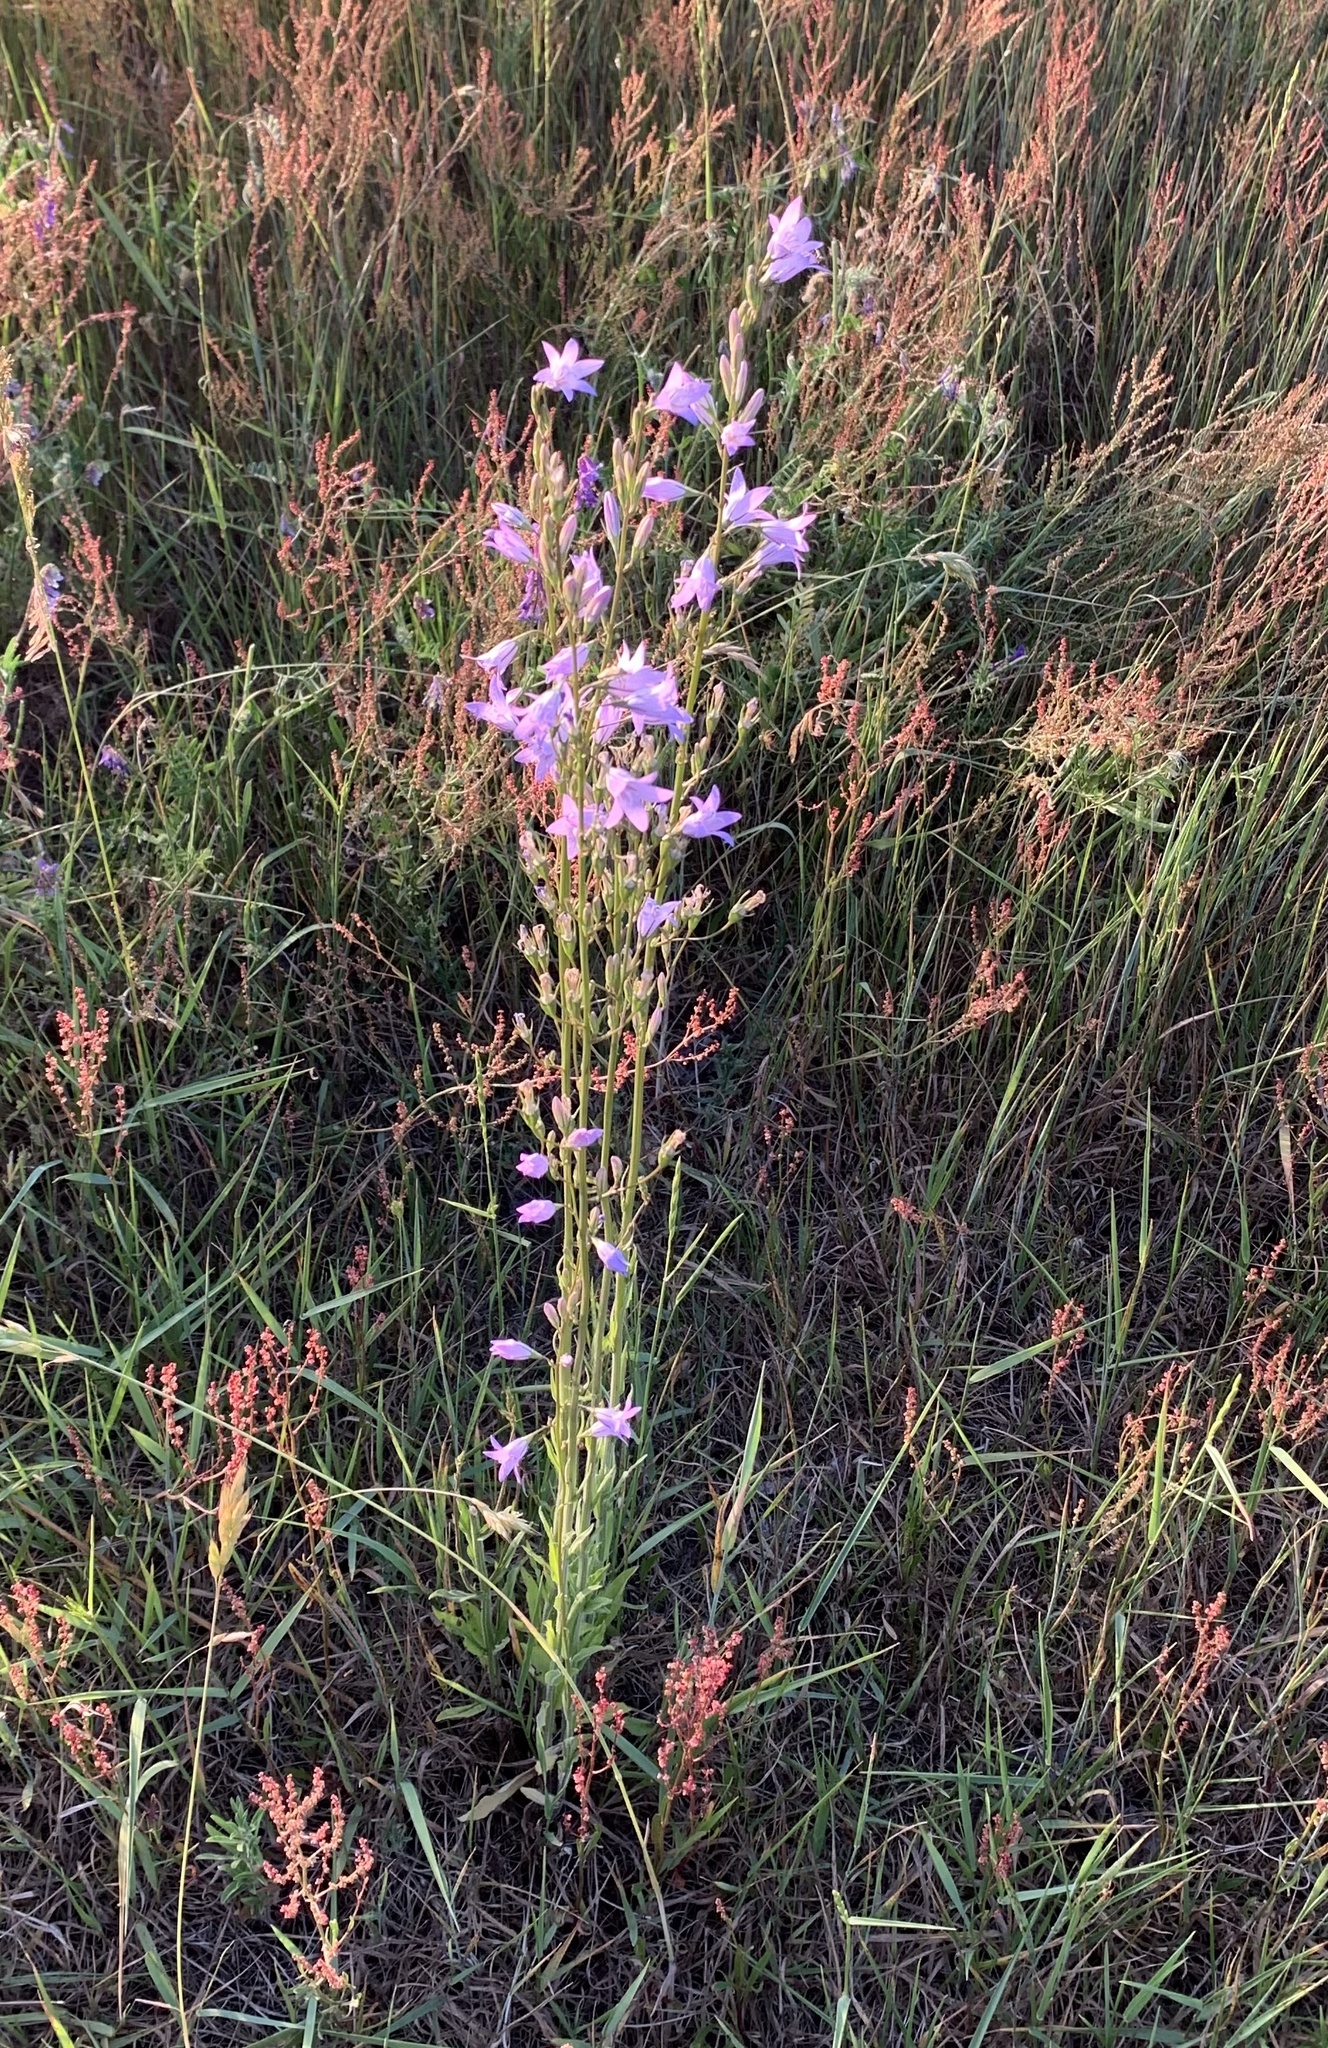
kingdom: Plantae
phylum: Tracheophyta
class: Magnoliopsida
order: Asterales
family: Campanulaceae
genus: Campanula
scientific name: Campanula rapunculus
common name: Rampion bellflower
